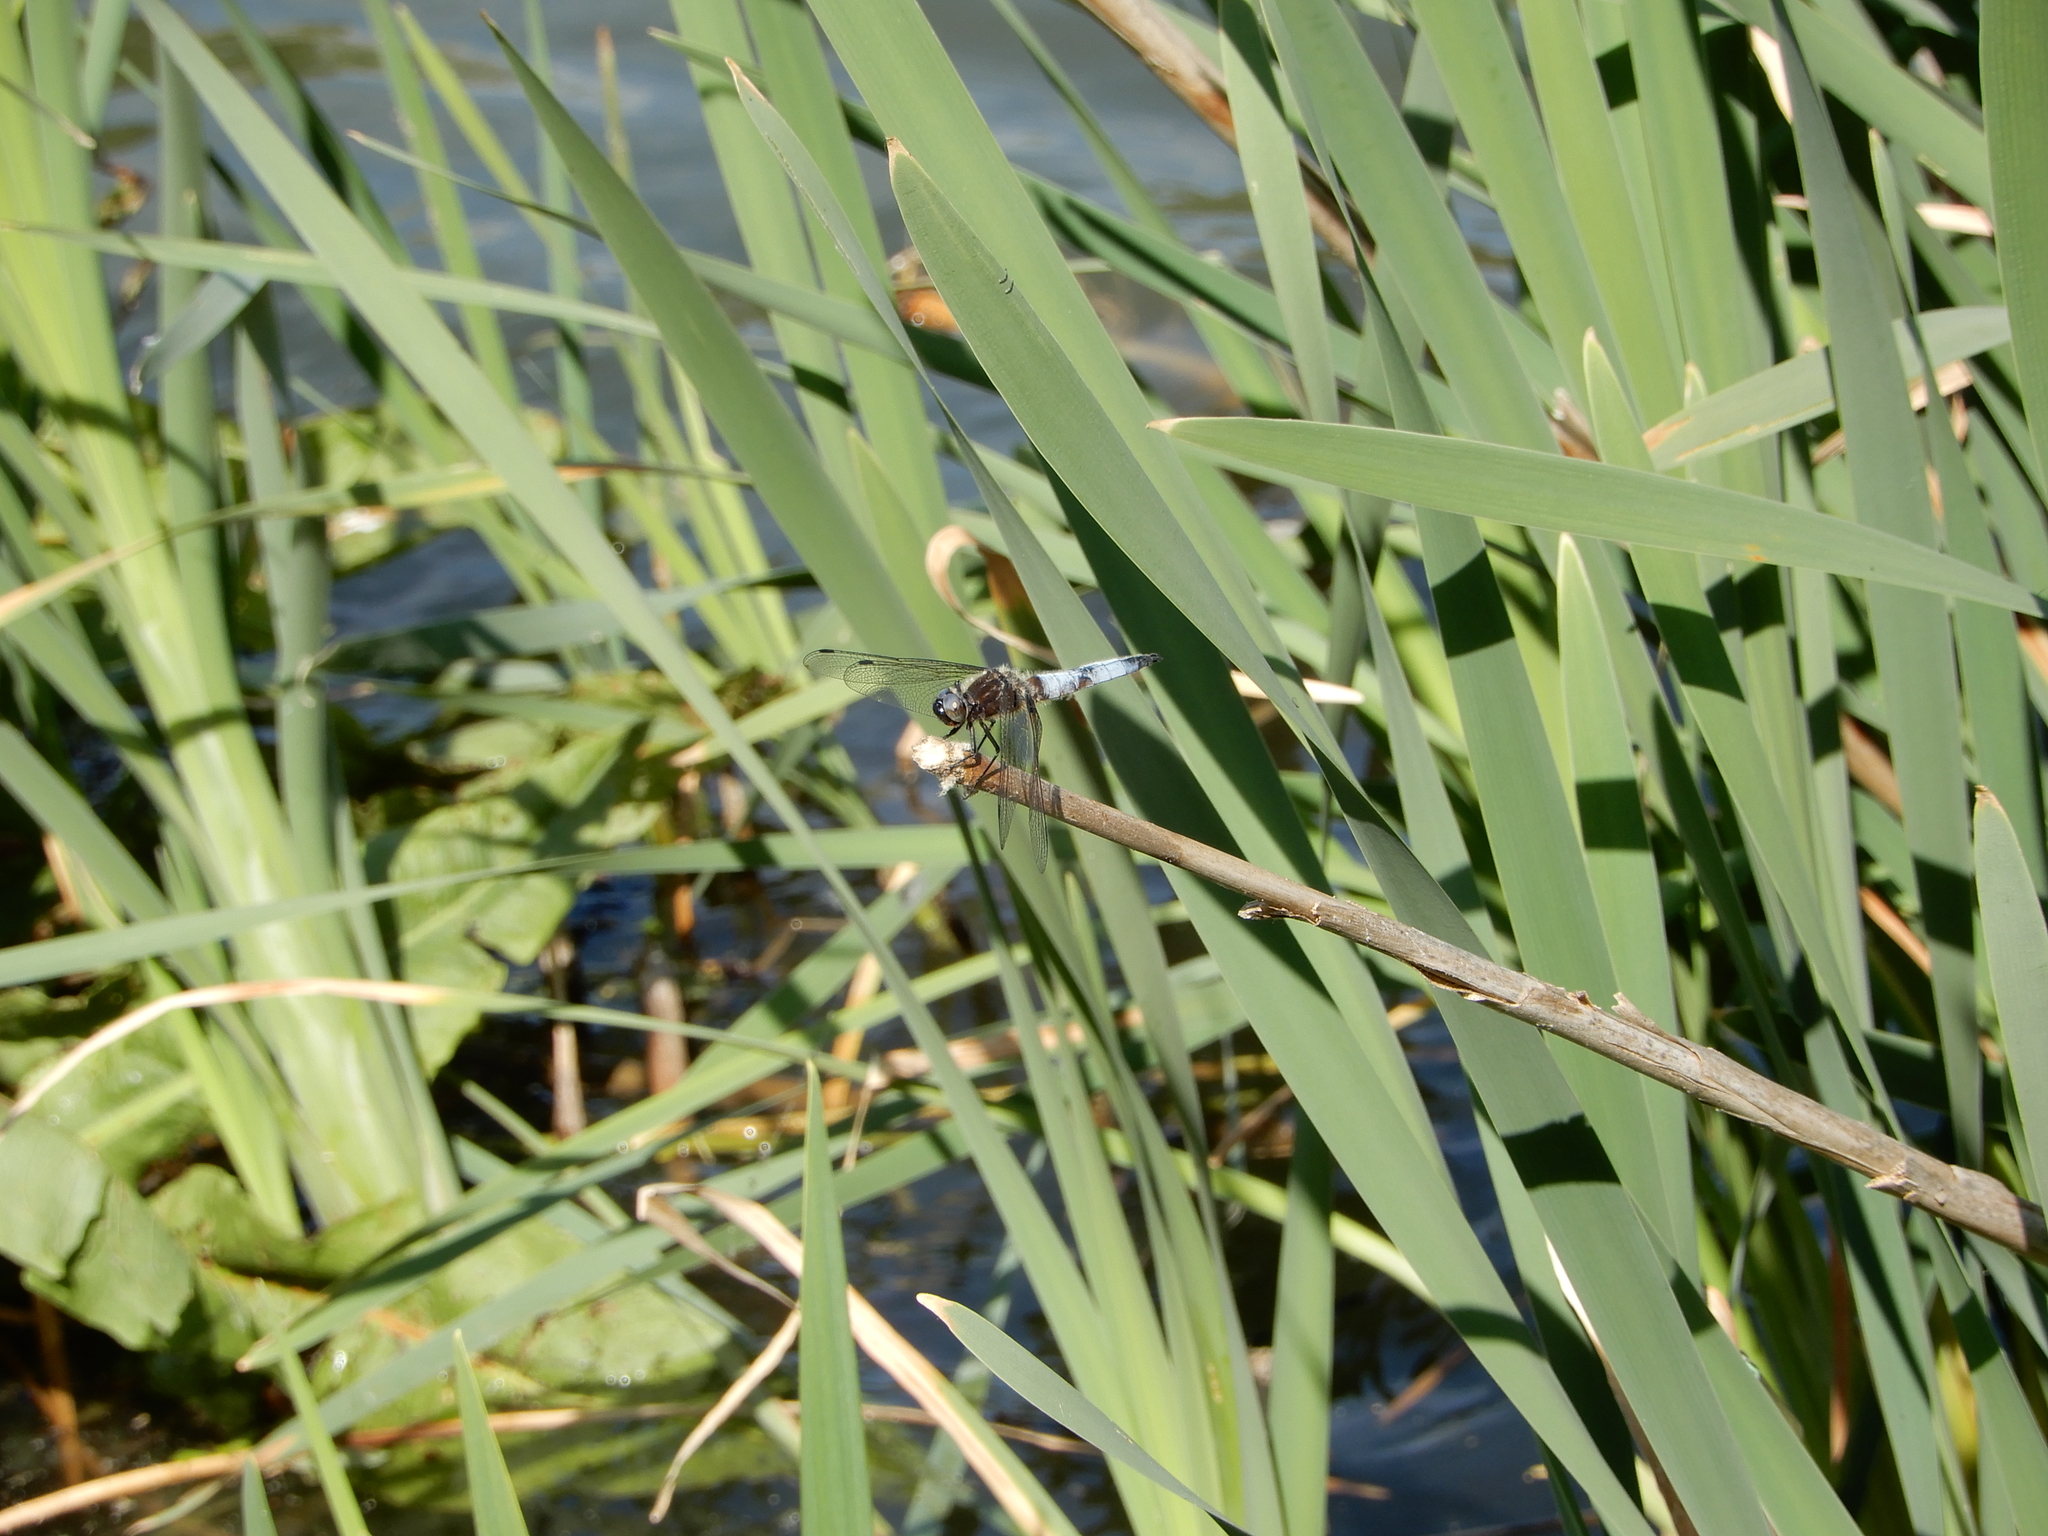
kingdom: Animalia
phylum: Arthropoda
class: Insecta
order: Odonata
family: Libellulidae
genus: Libellula
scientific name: Libellula fulva
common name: Blue chaser
